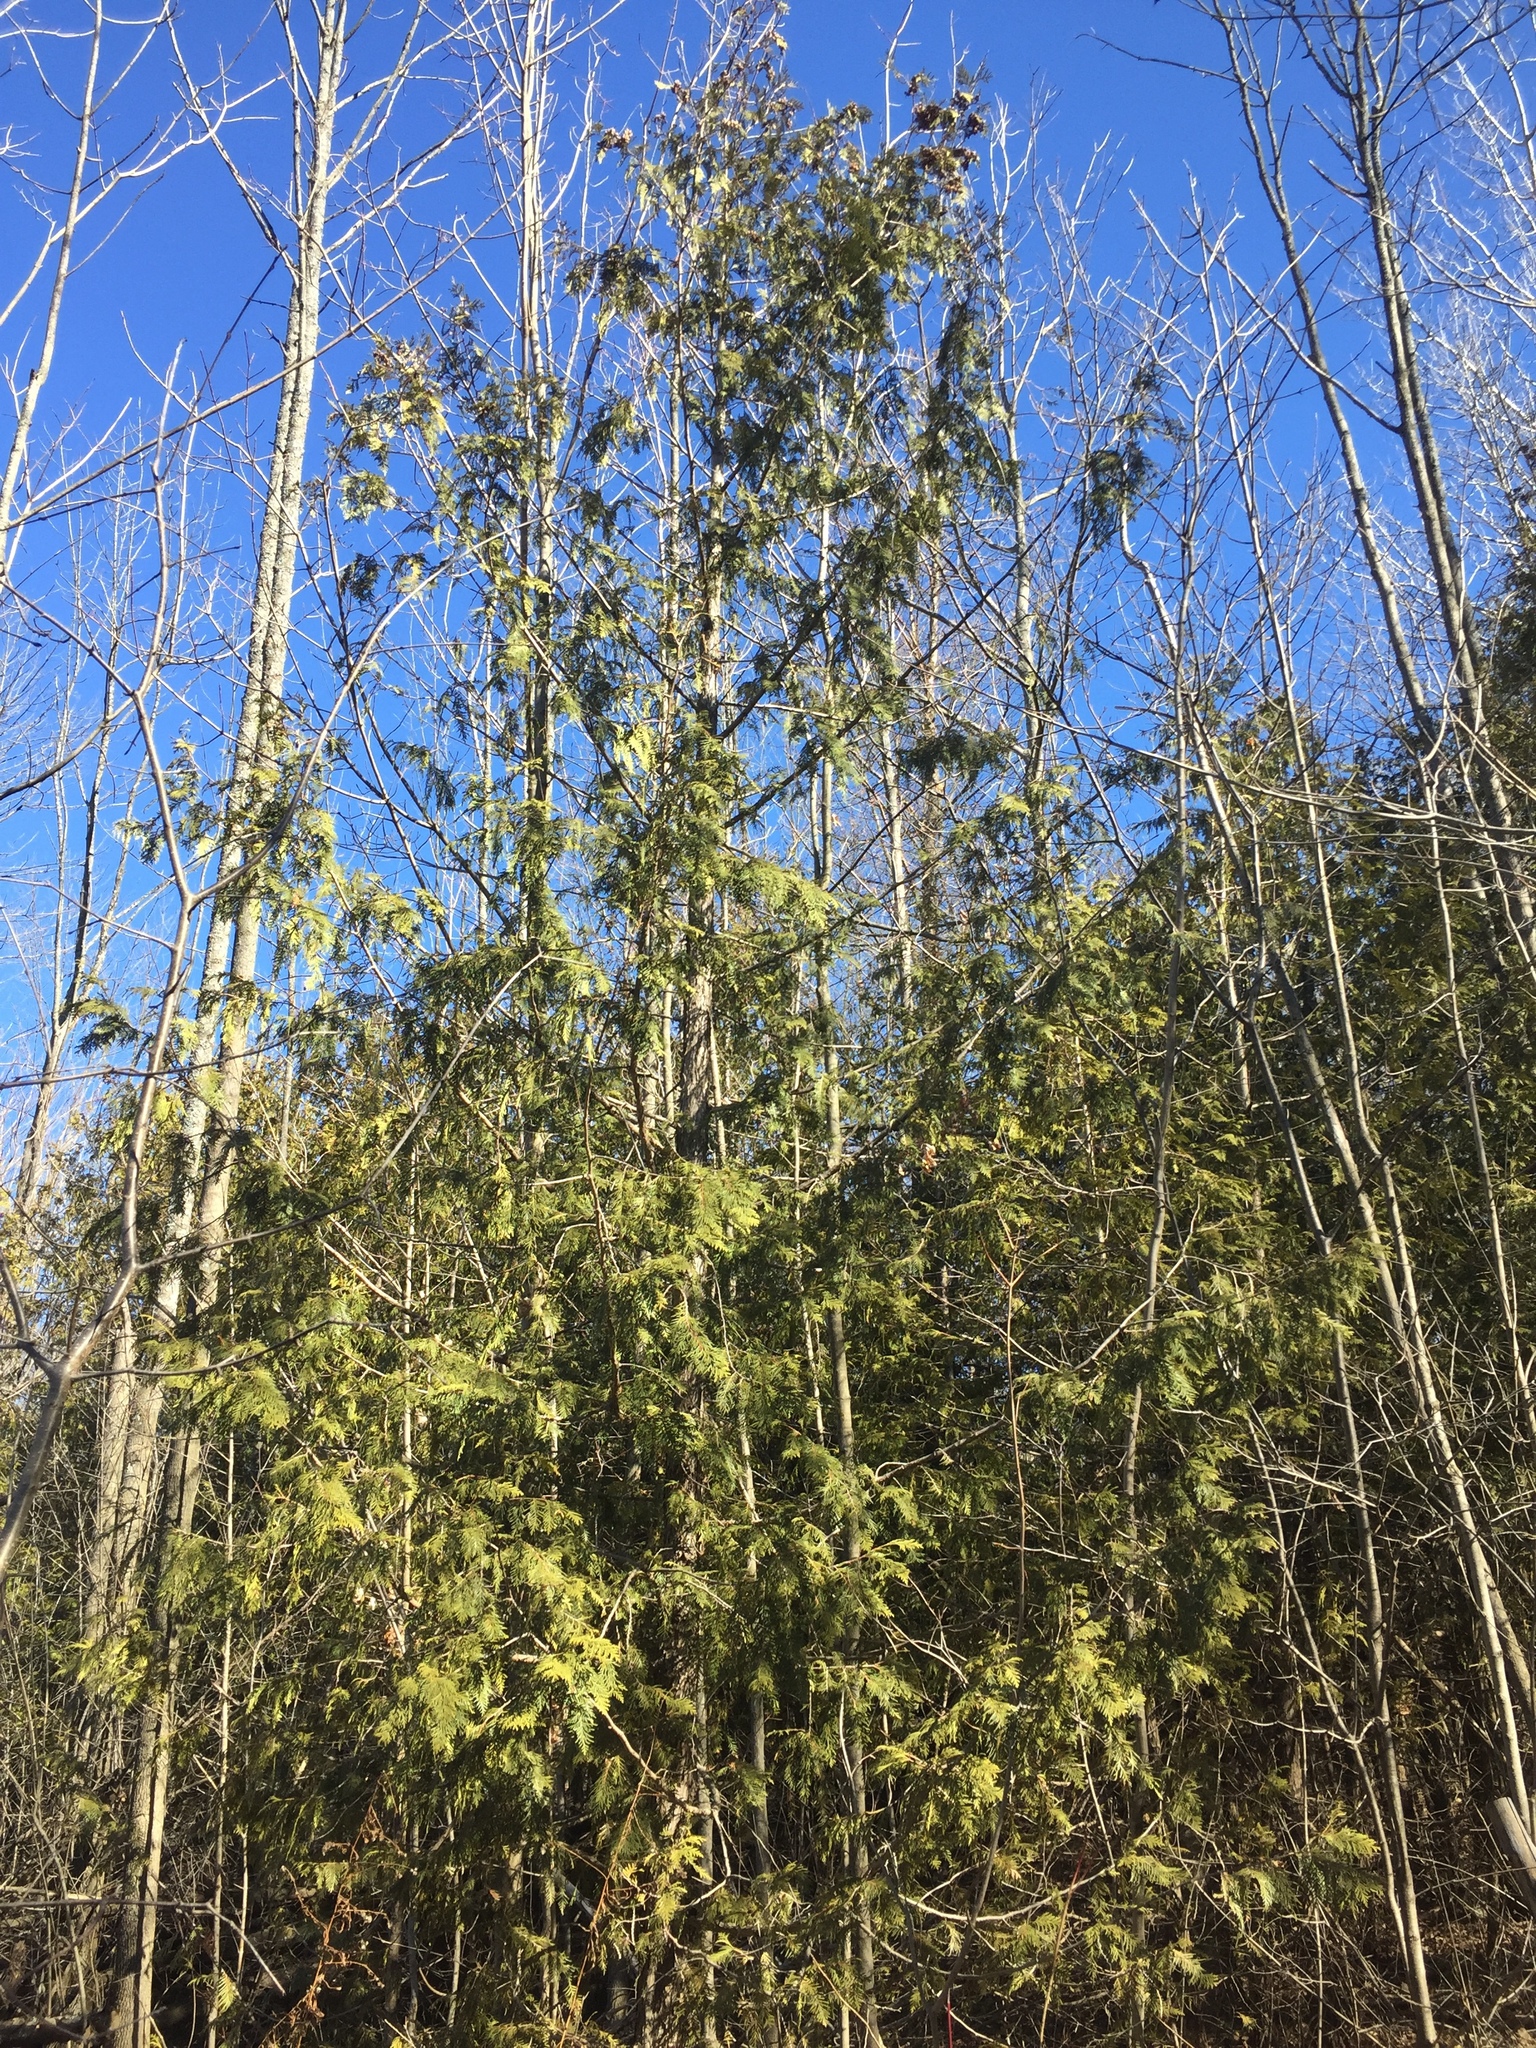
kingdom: Plantae
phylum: Tracheophyta
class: Pinopsida
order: Pinales
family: Cupressaceae
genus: Thuja
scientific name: Thuja occidentalis
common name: Northern white-cedar
